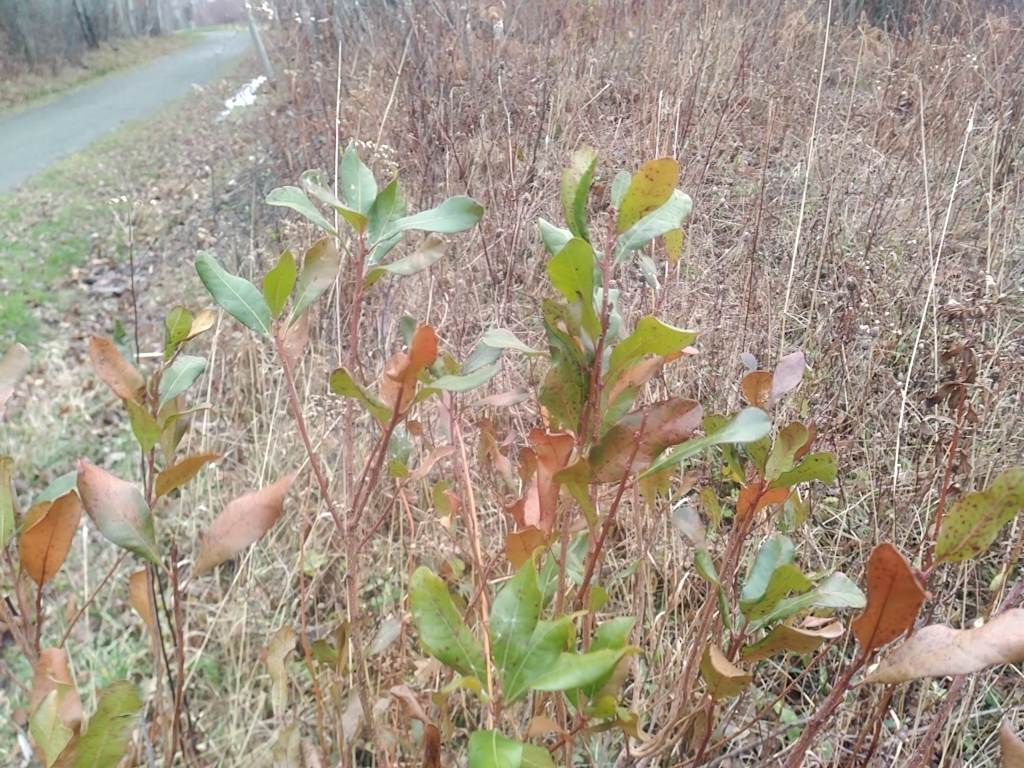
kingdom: Plantae
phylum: Tracheophyta
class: Magnoliopsida
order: Fagales
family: Myricaceae
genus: Morella
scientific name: Morella pensylvanica
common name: Northern bayberry
